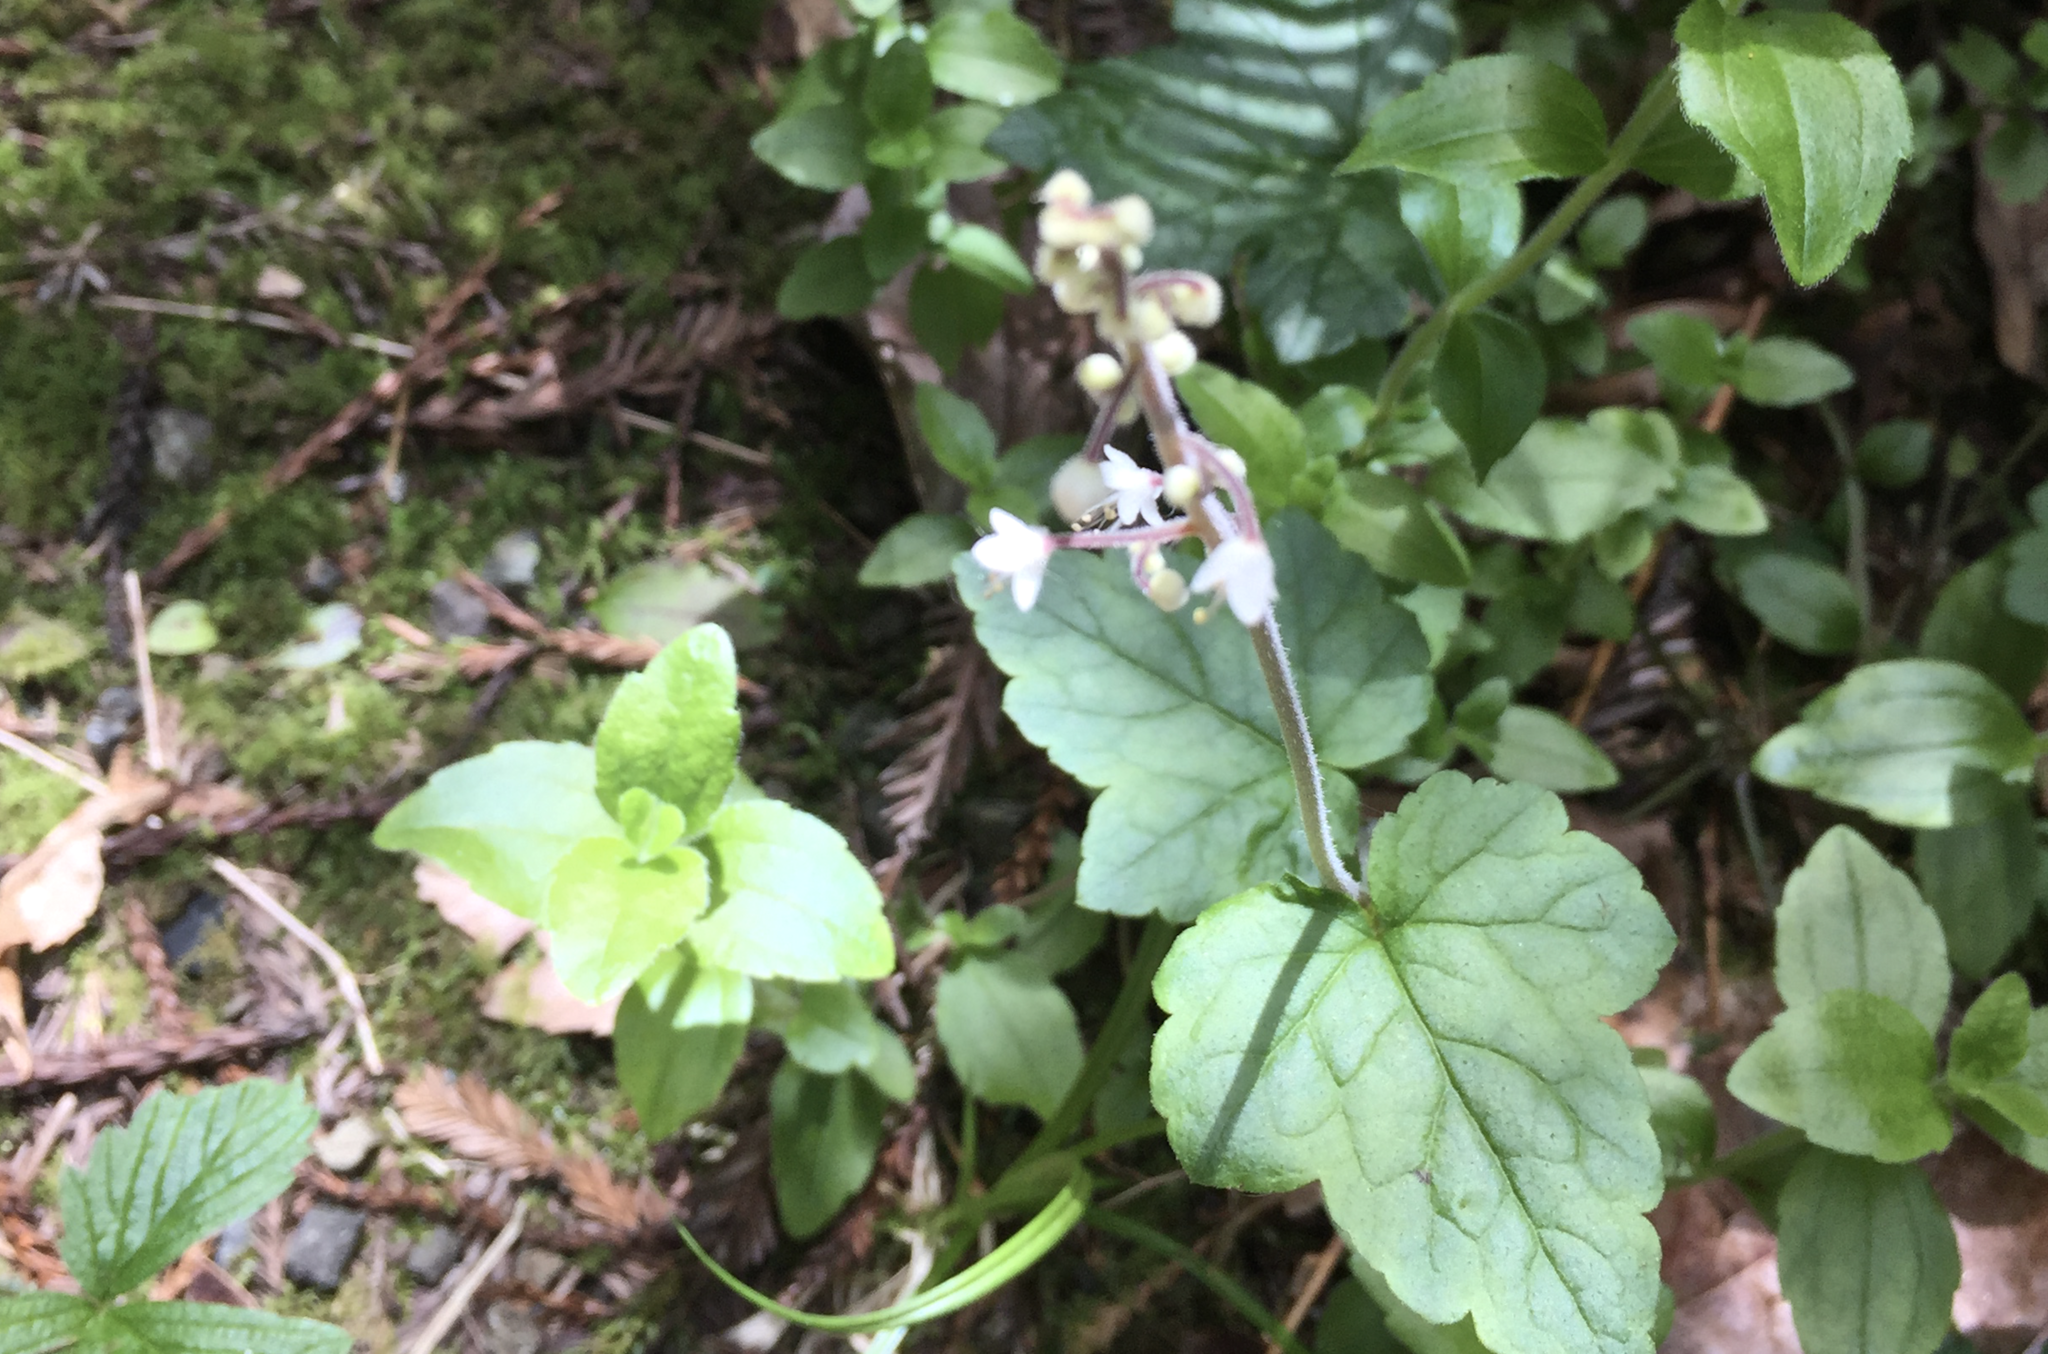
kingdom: Plantae
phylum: Tracheophyta
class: Magnoliopsida
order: Saxifragales
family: Saxifragaceae
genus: Tiarella
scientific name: Tiarella trifoliata
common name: Sugar-scoop
